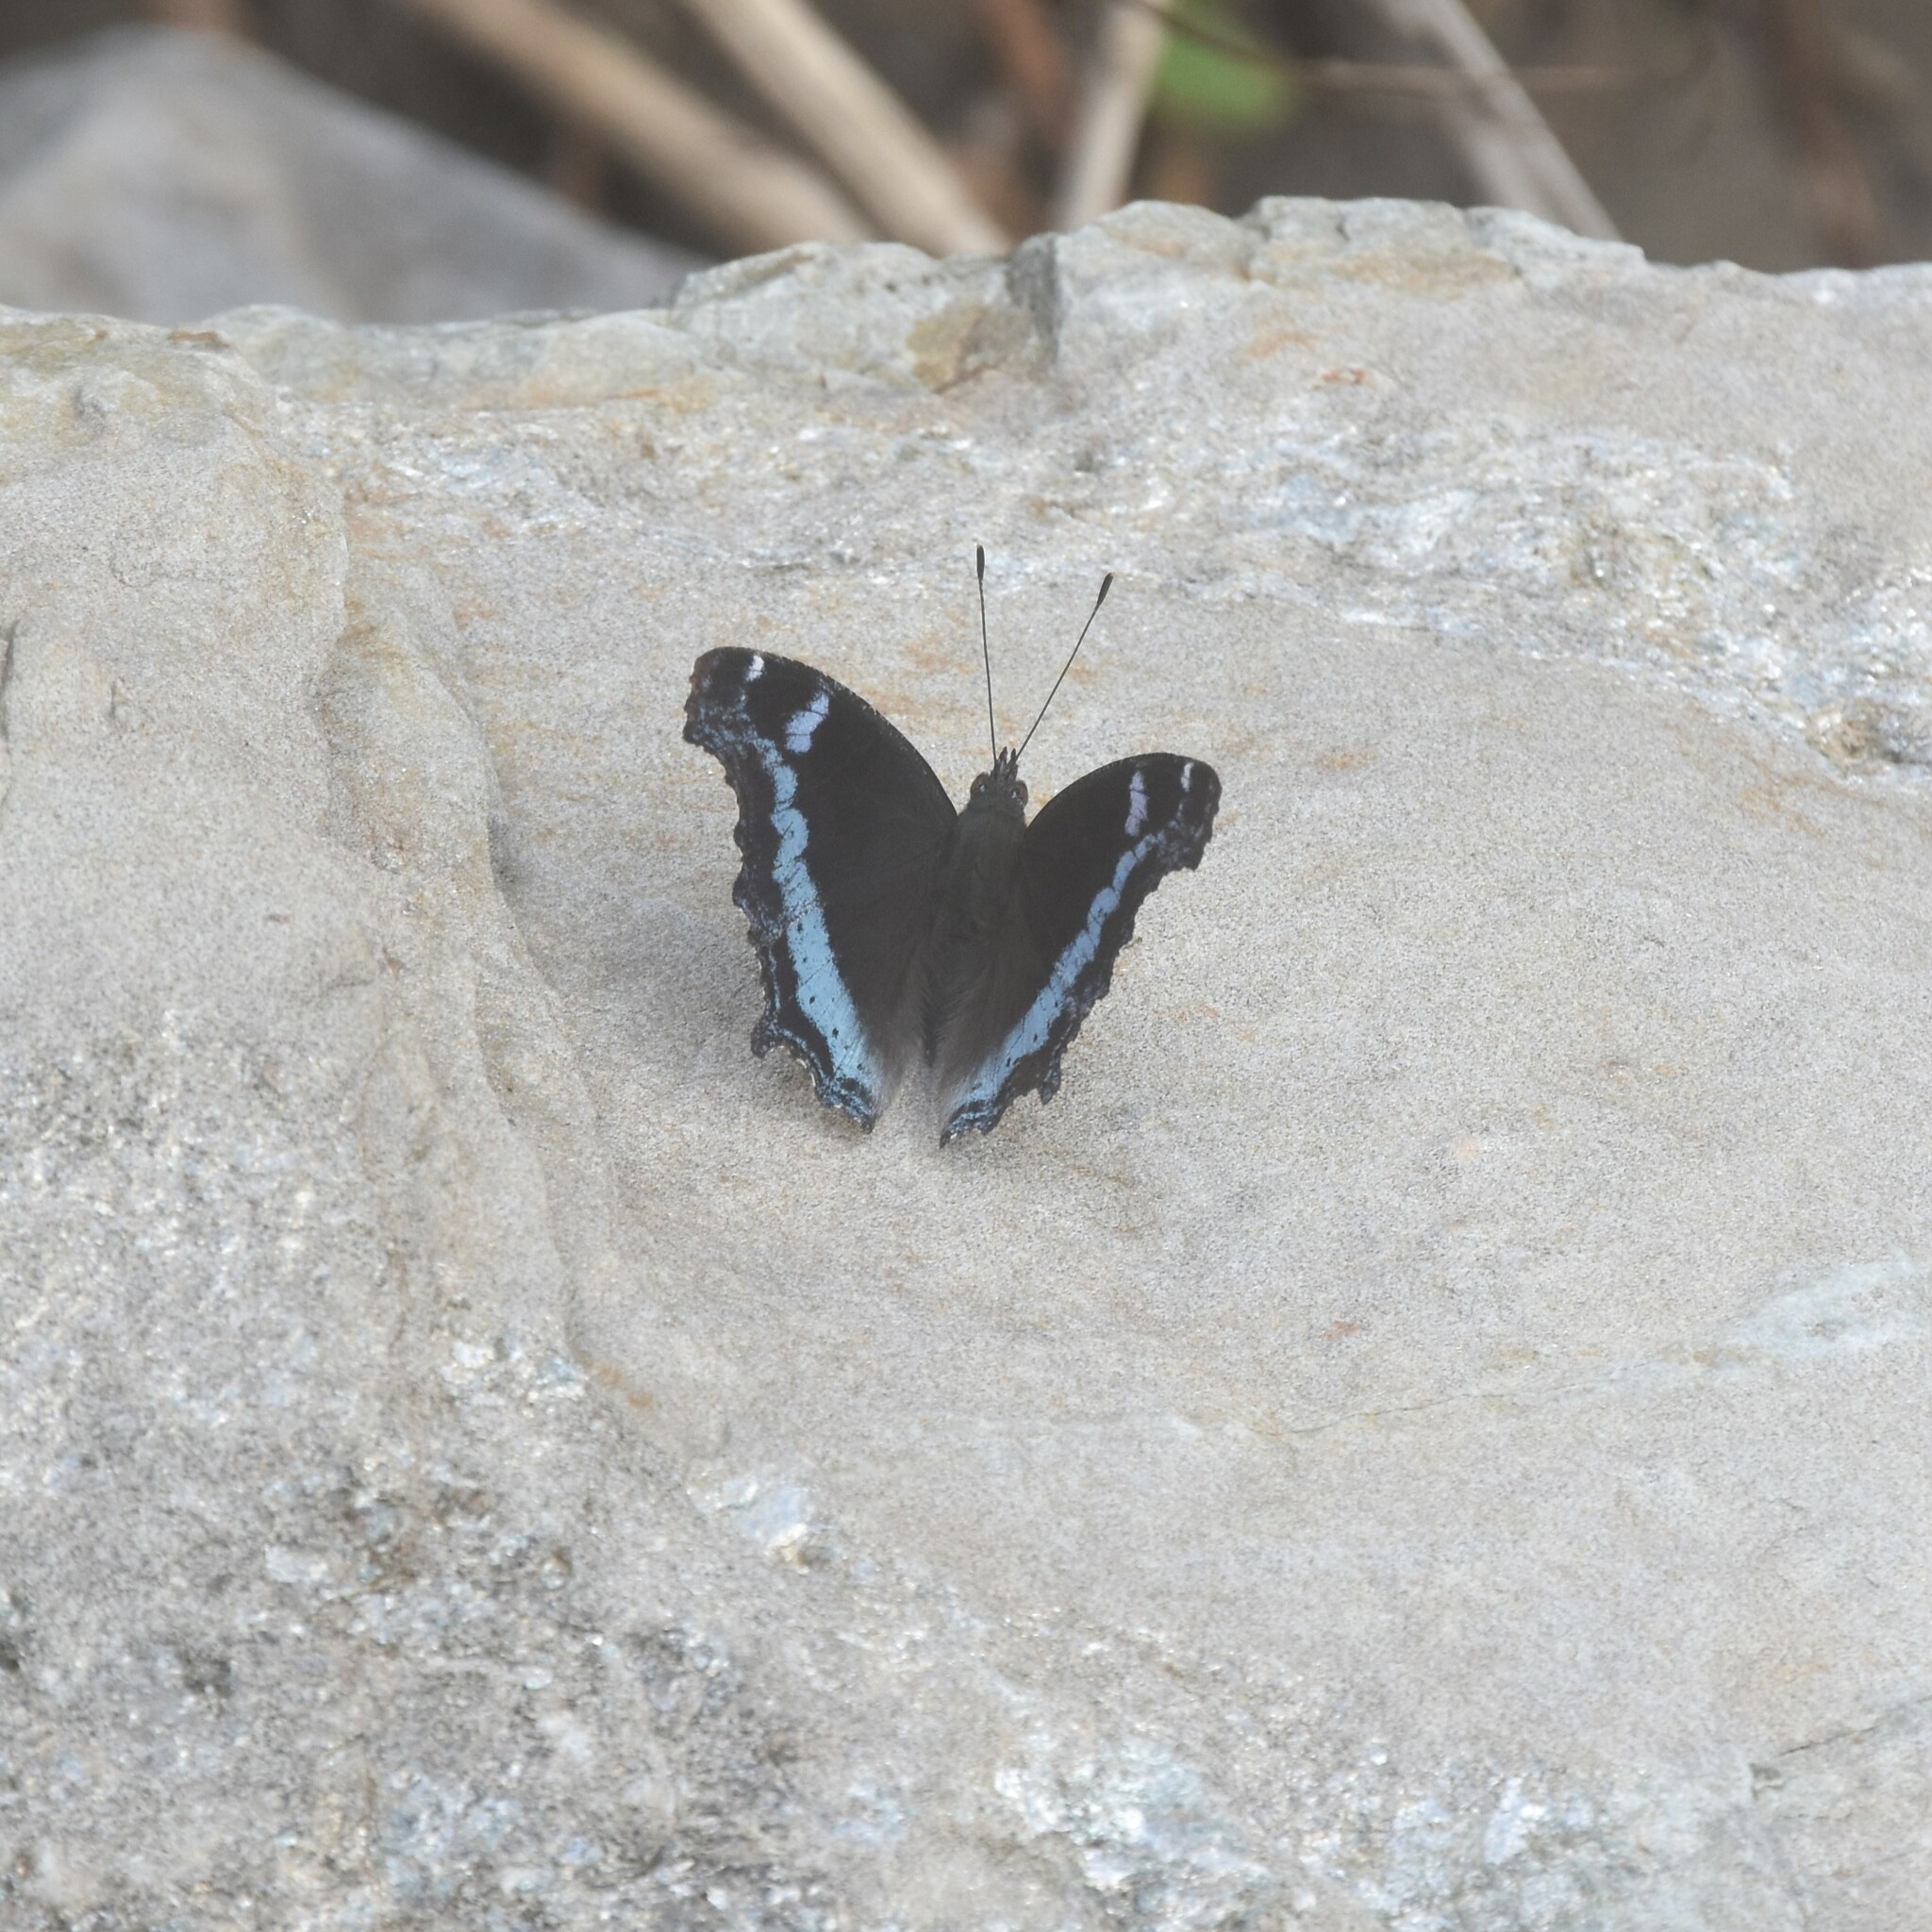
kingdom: Animalia
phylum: Arthropoda
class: Insecta
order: Lepidoptera
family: Nymphalidae
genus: Vanessa
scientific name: Vanessa Kaniska canace
